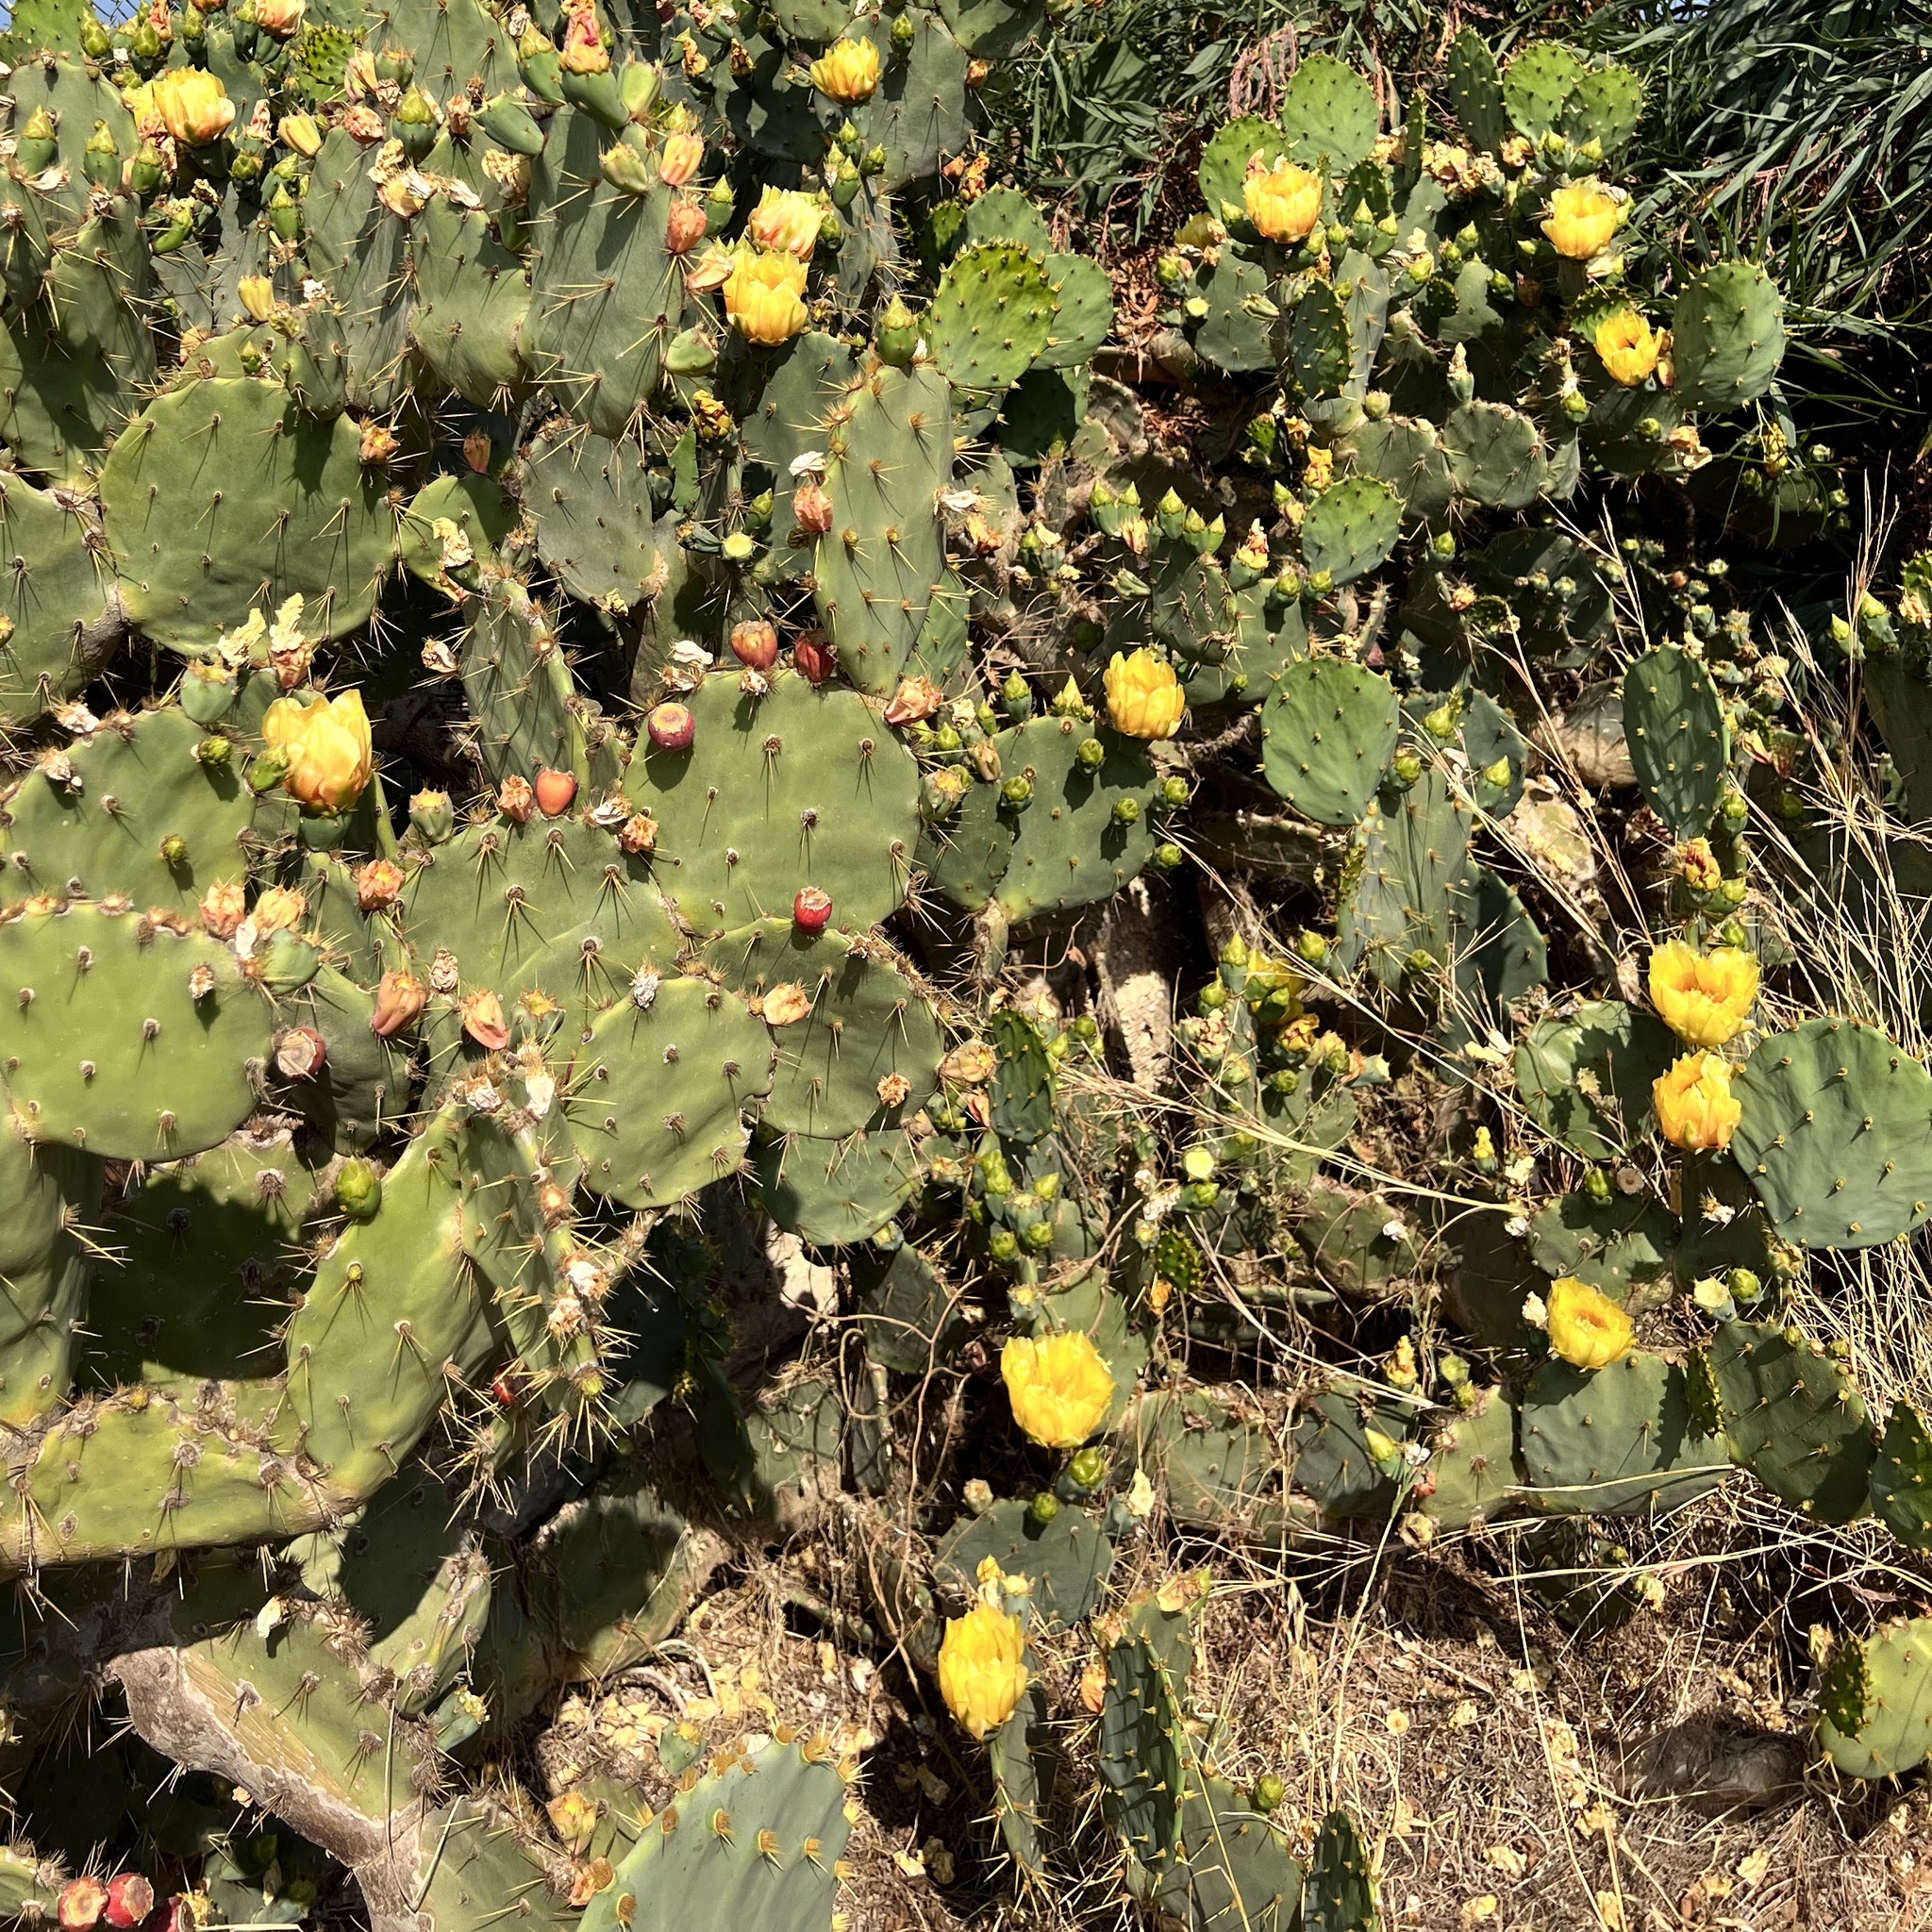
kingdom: Plantae
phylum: Tracheophyta
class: Magnoliopsida
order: Caryophyllales
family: Cactaceae
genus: Opuntia
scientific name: Opuntia dillenii
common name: Sour prickle
